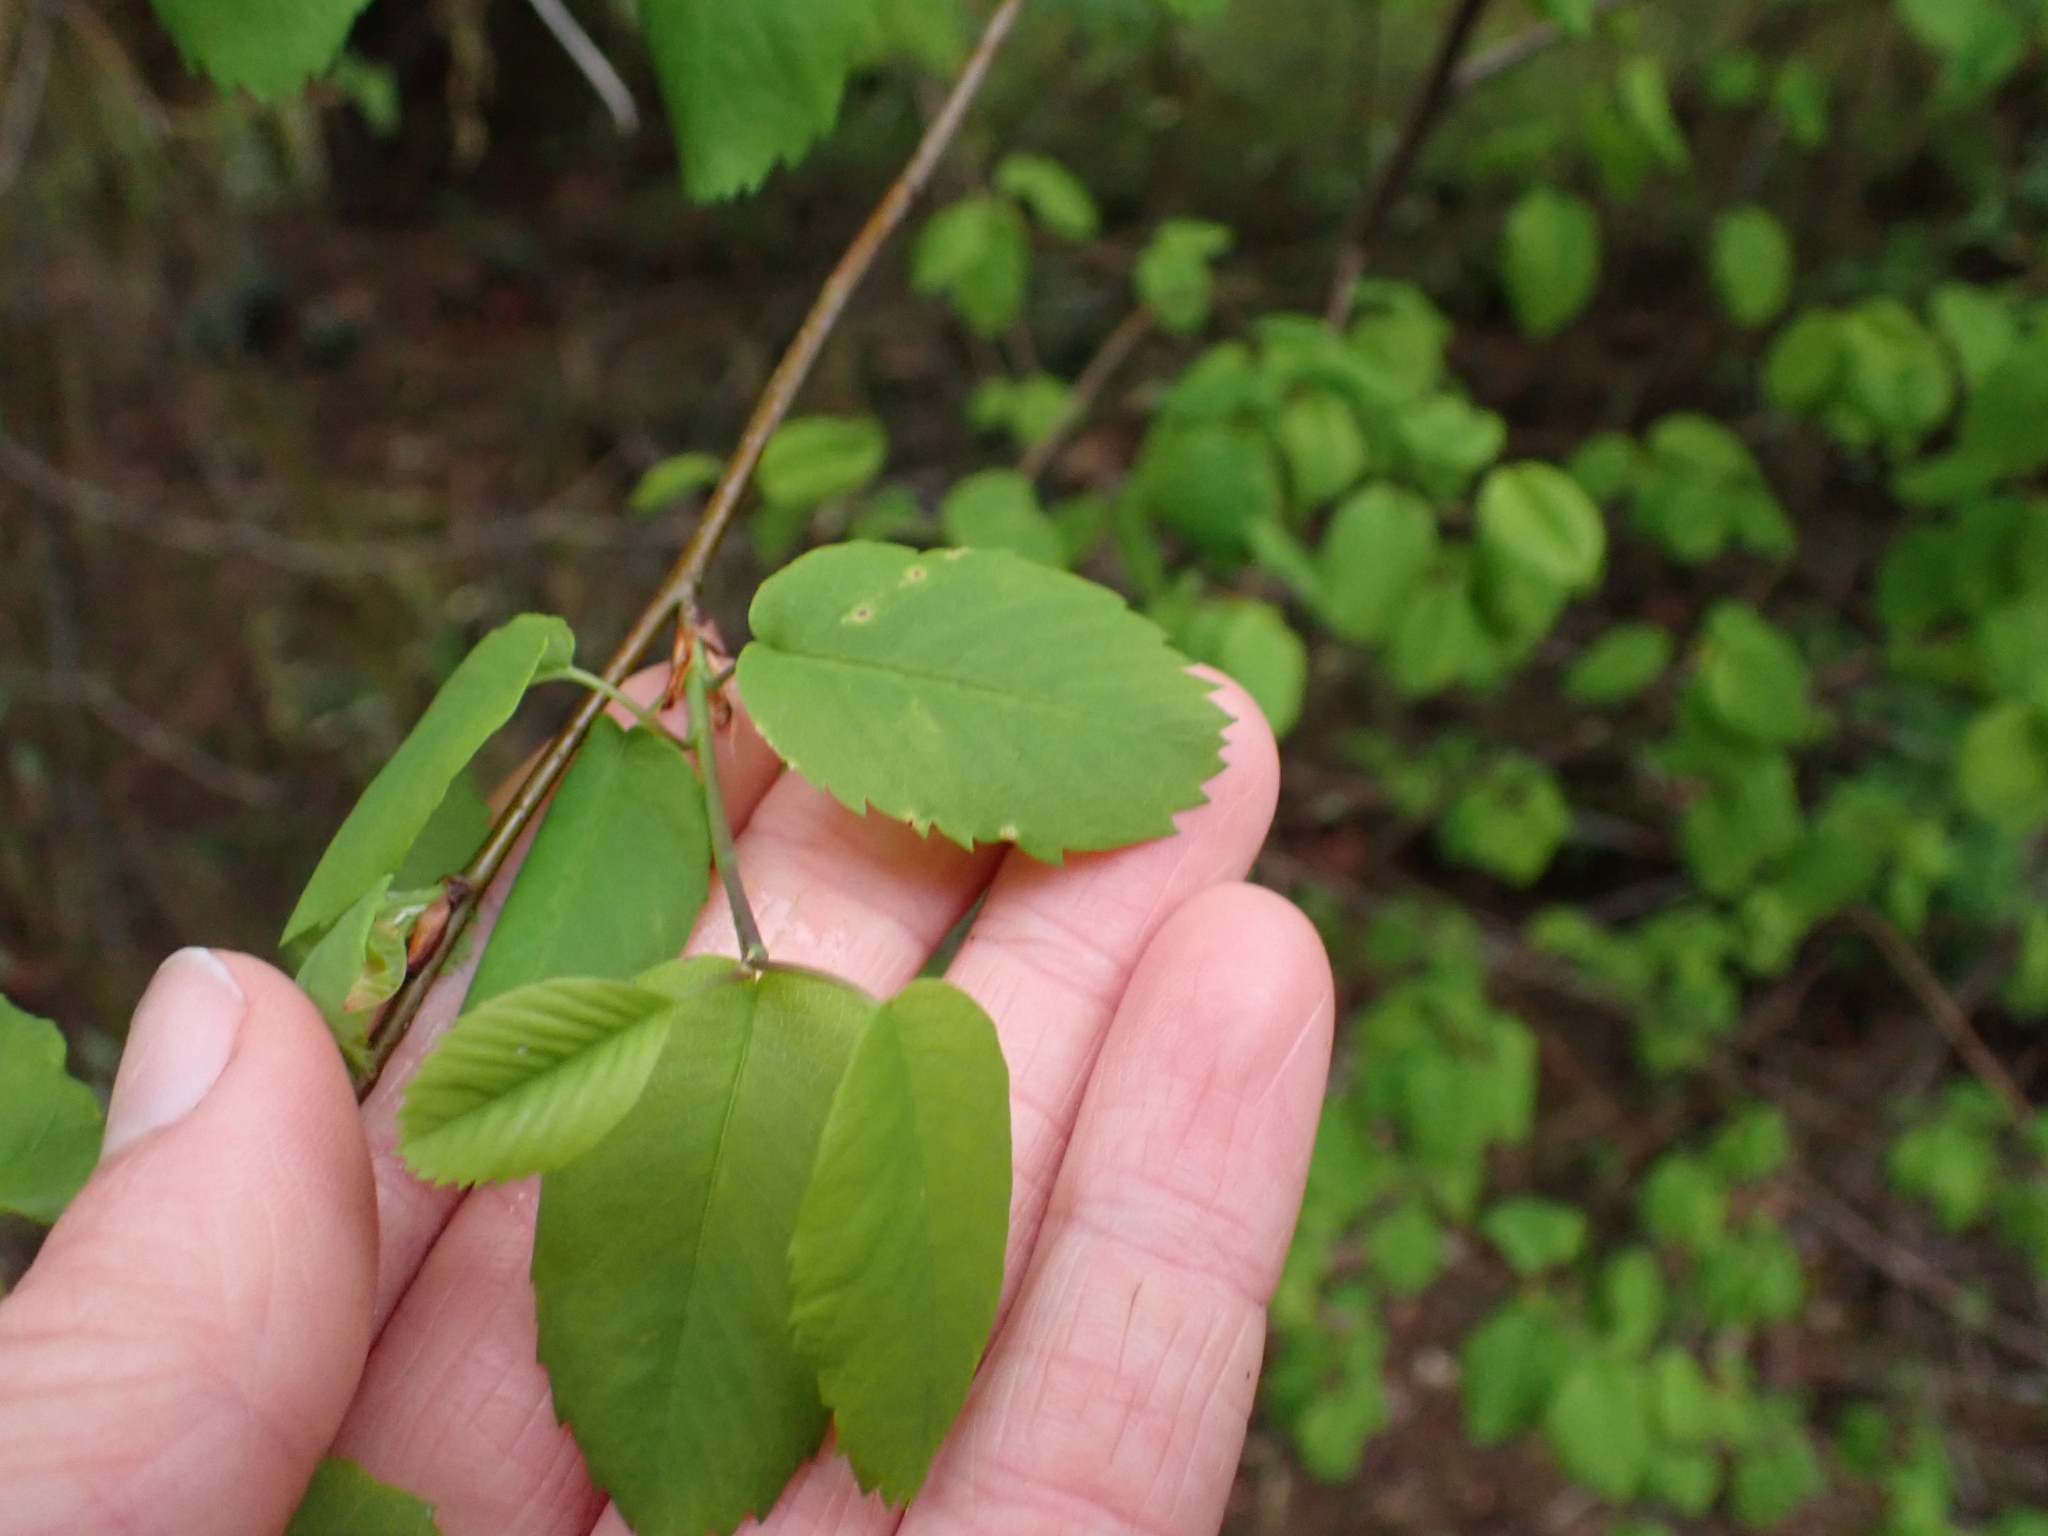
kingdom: Plantae
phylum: Tracheophyta
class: Magnoliopsida
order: Rosales
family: Rosaceae
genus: Amelanchier
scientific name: Amelanchier alnifolia
